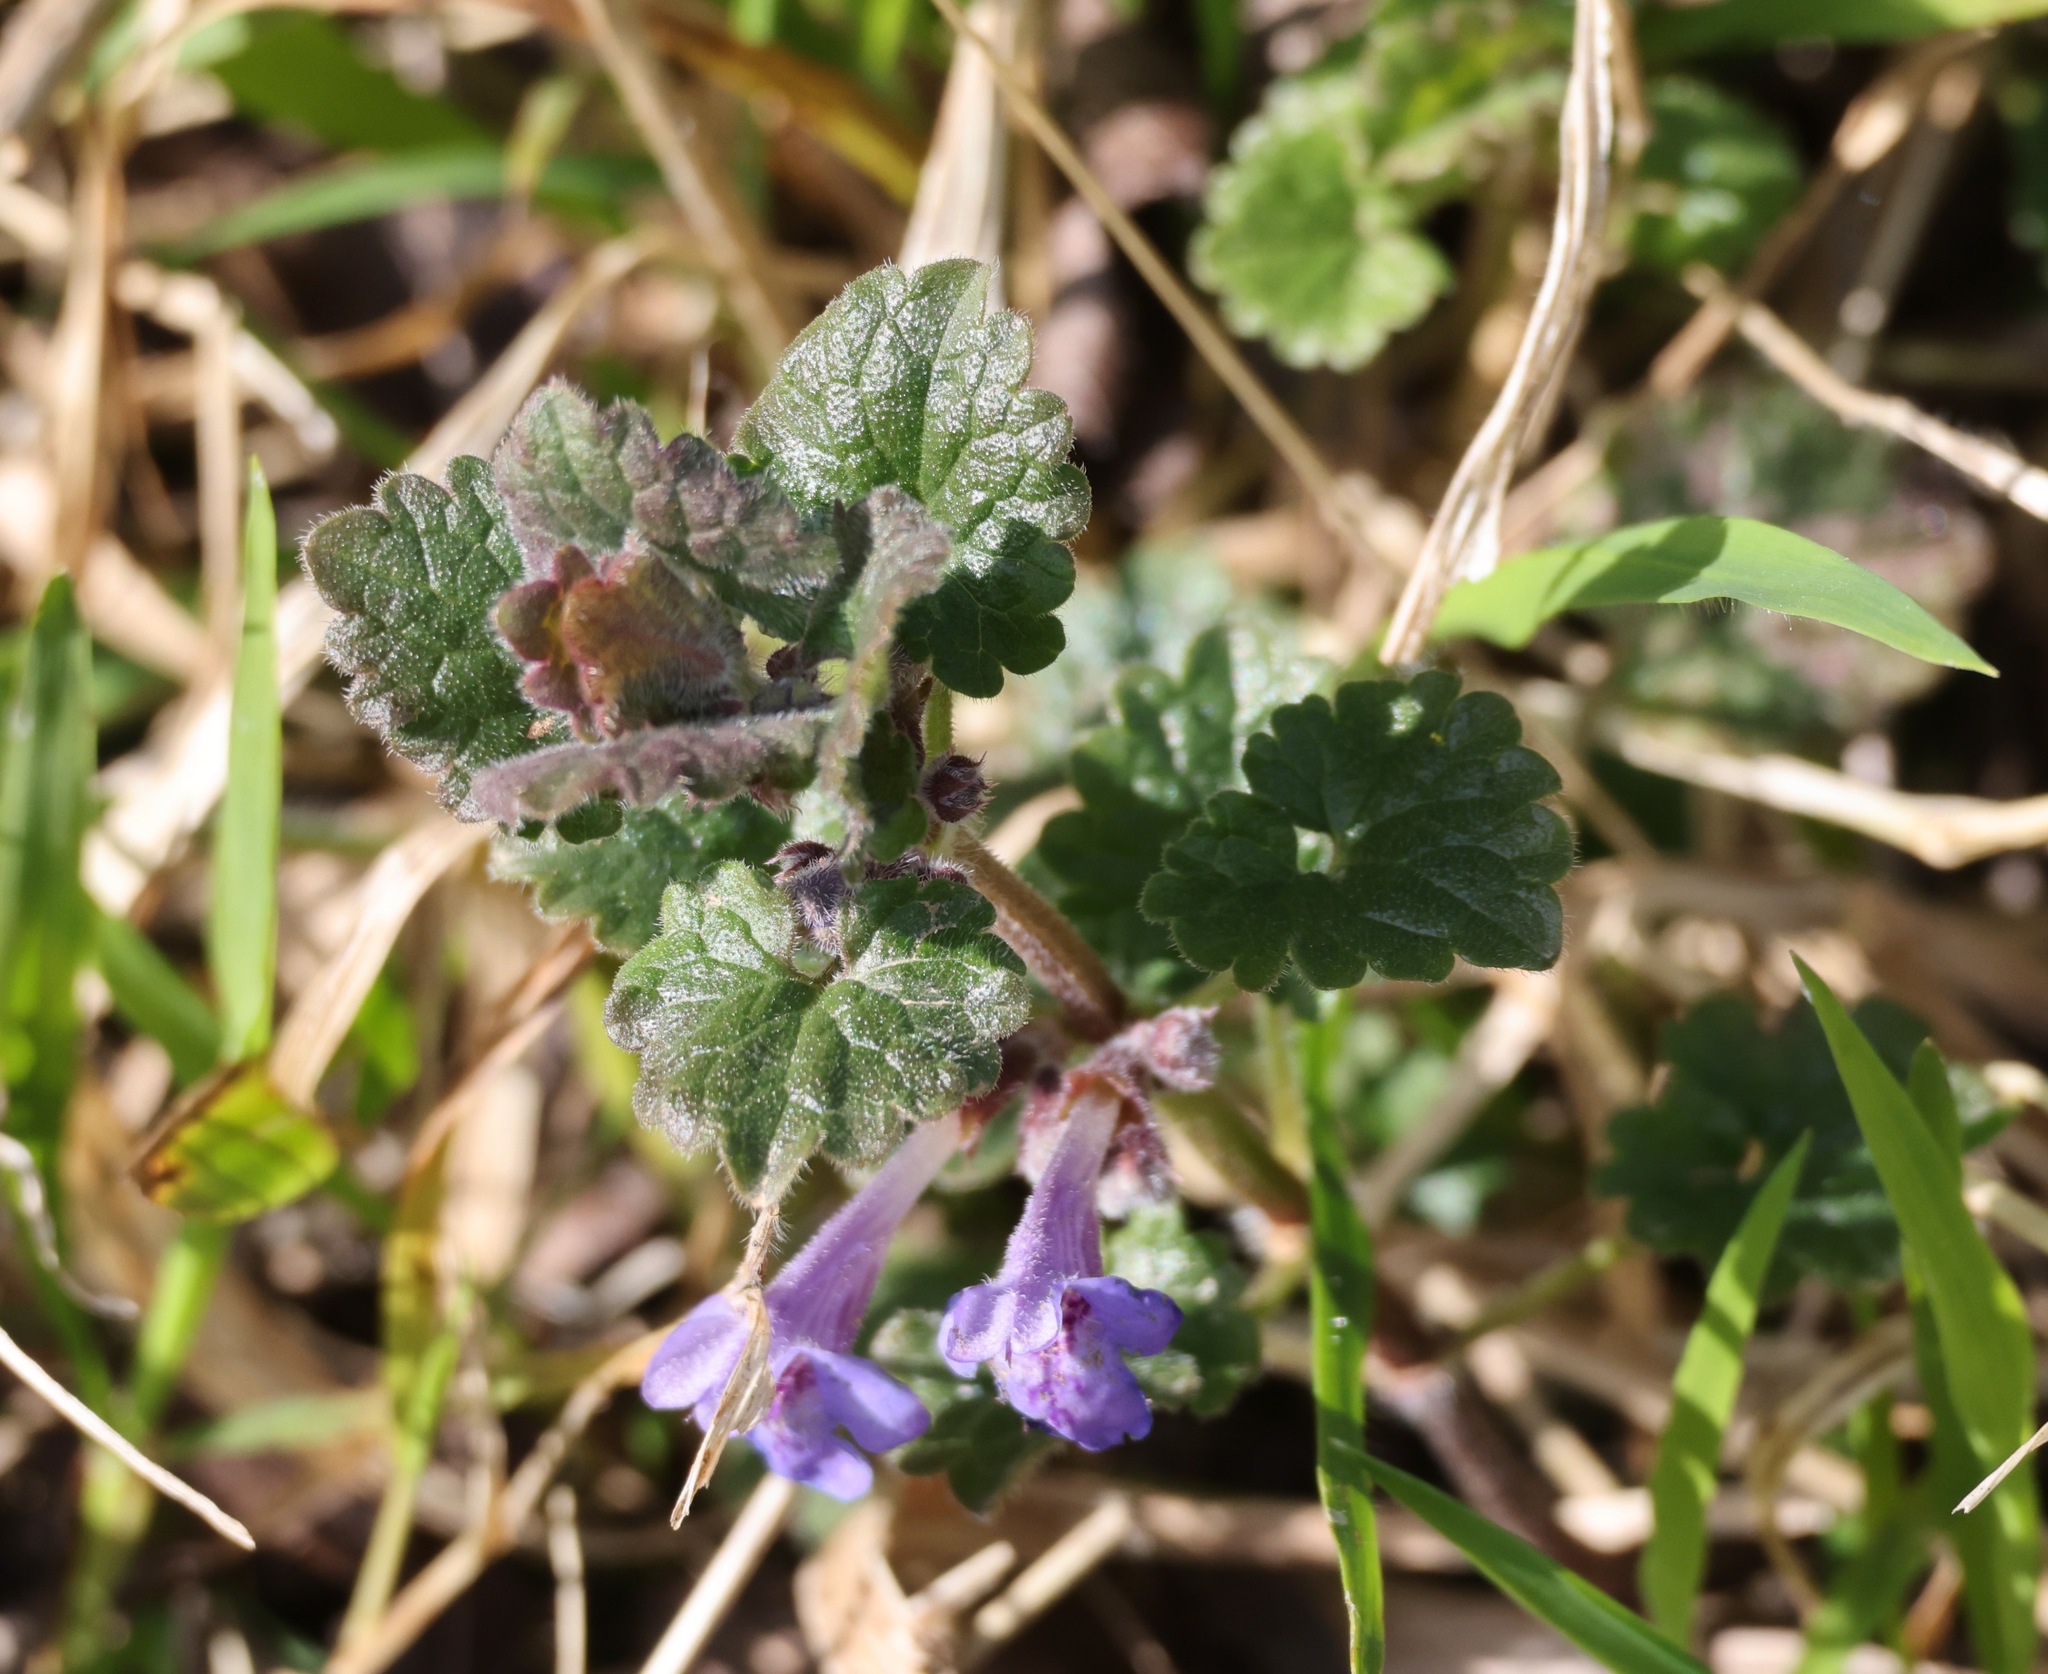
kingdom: Plantae
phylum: Tracheophyta
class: Magnoliopsida
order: Lamiales
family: Lamiaceae
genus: Glechoma
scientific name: Glechoma hederacea
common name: Ground ivy
